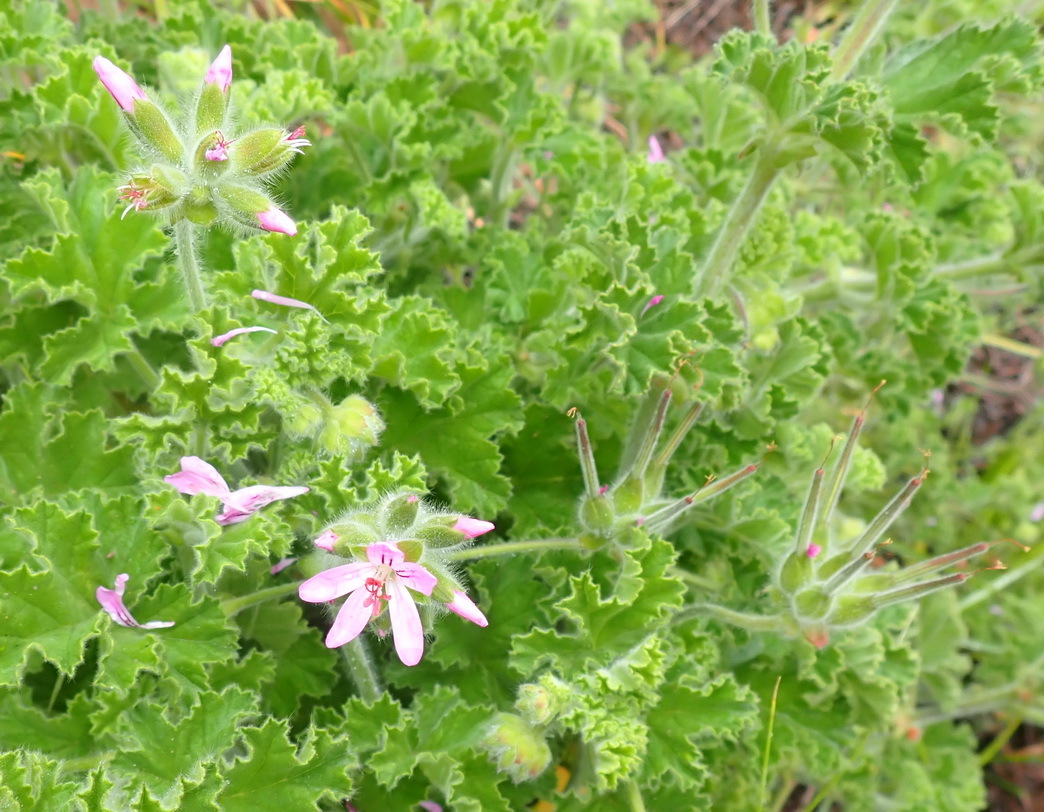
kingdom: Plantae
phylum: Tracheophyta
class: Magnoliopsida
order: Geraniales
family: Geraniaceae
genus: Pelargonium
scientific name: Pelargonium capitatum
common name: Rose scented geranium
